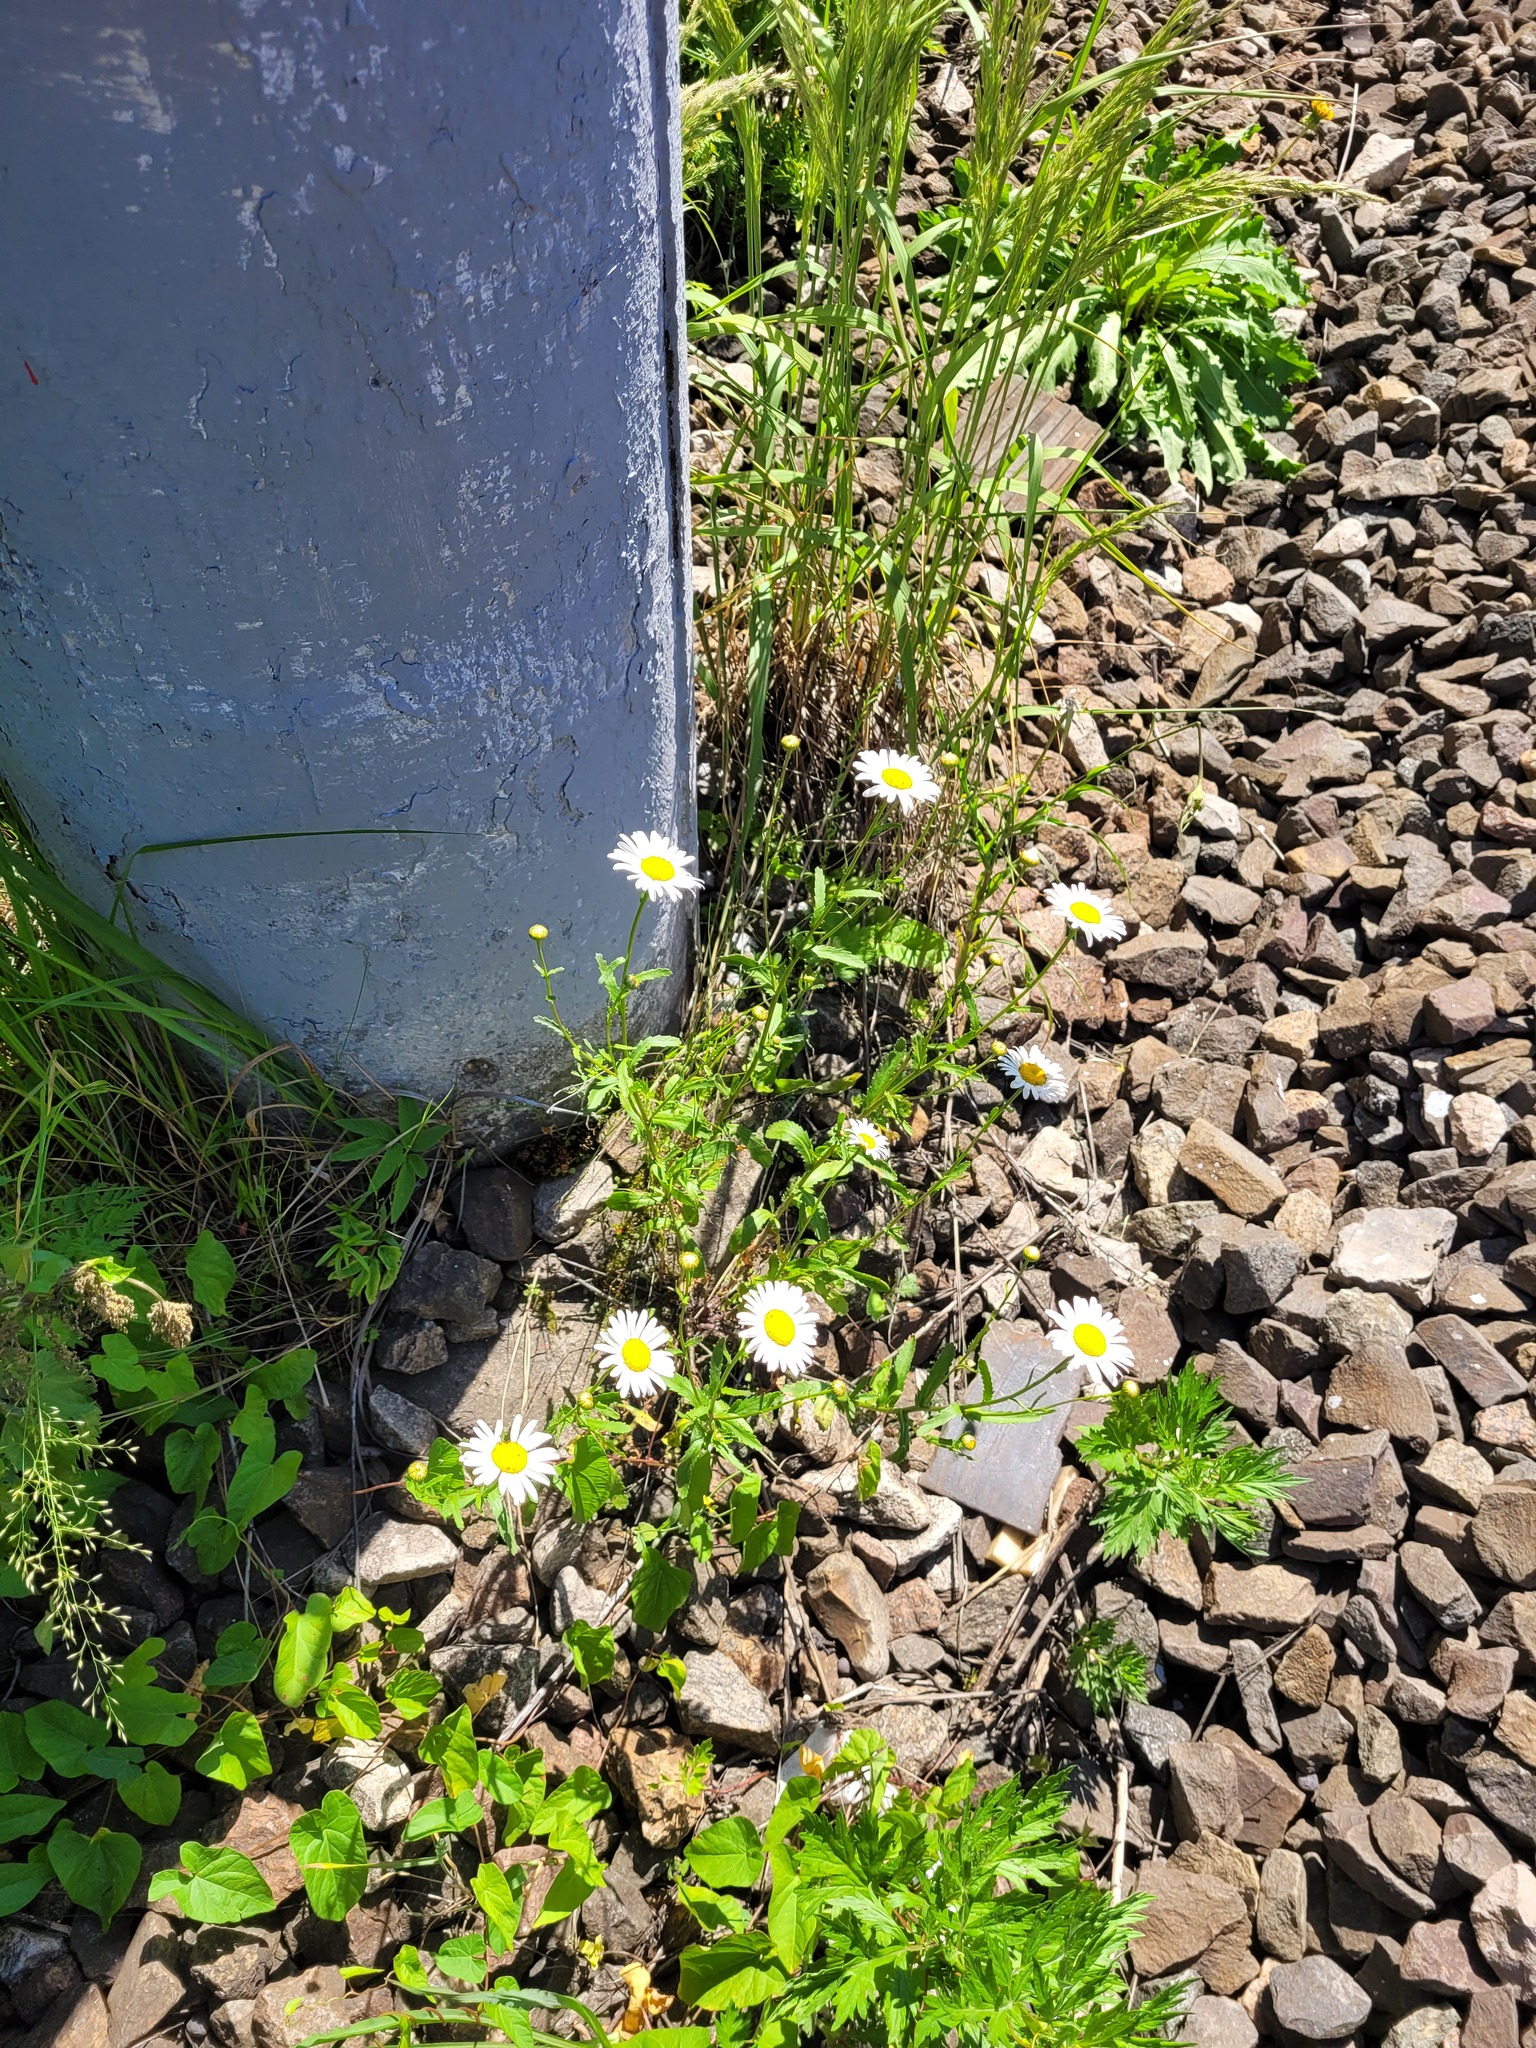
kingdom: Plantae
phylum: Tracheophyta
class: Magnoliopsida
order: Asterales
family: Asteraceae
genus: Leucanthemum
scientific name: Leucanthemum vulgare
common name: Oxeye daisy
